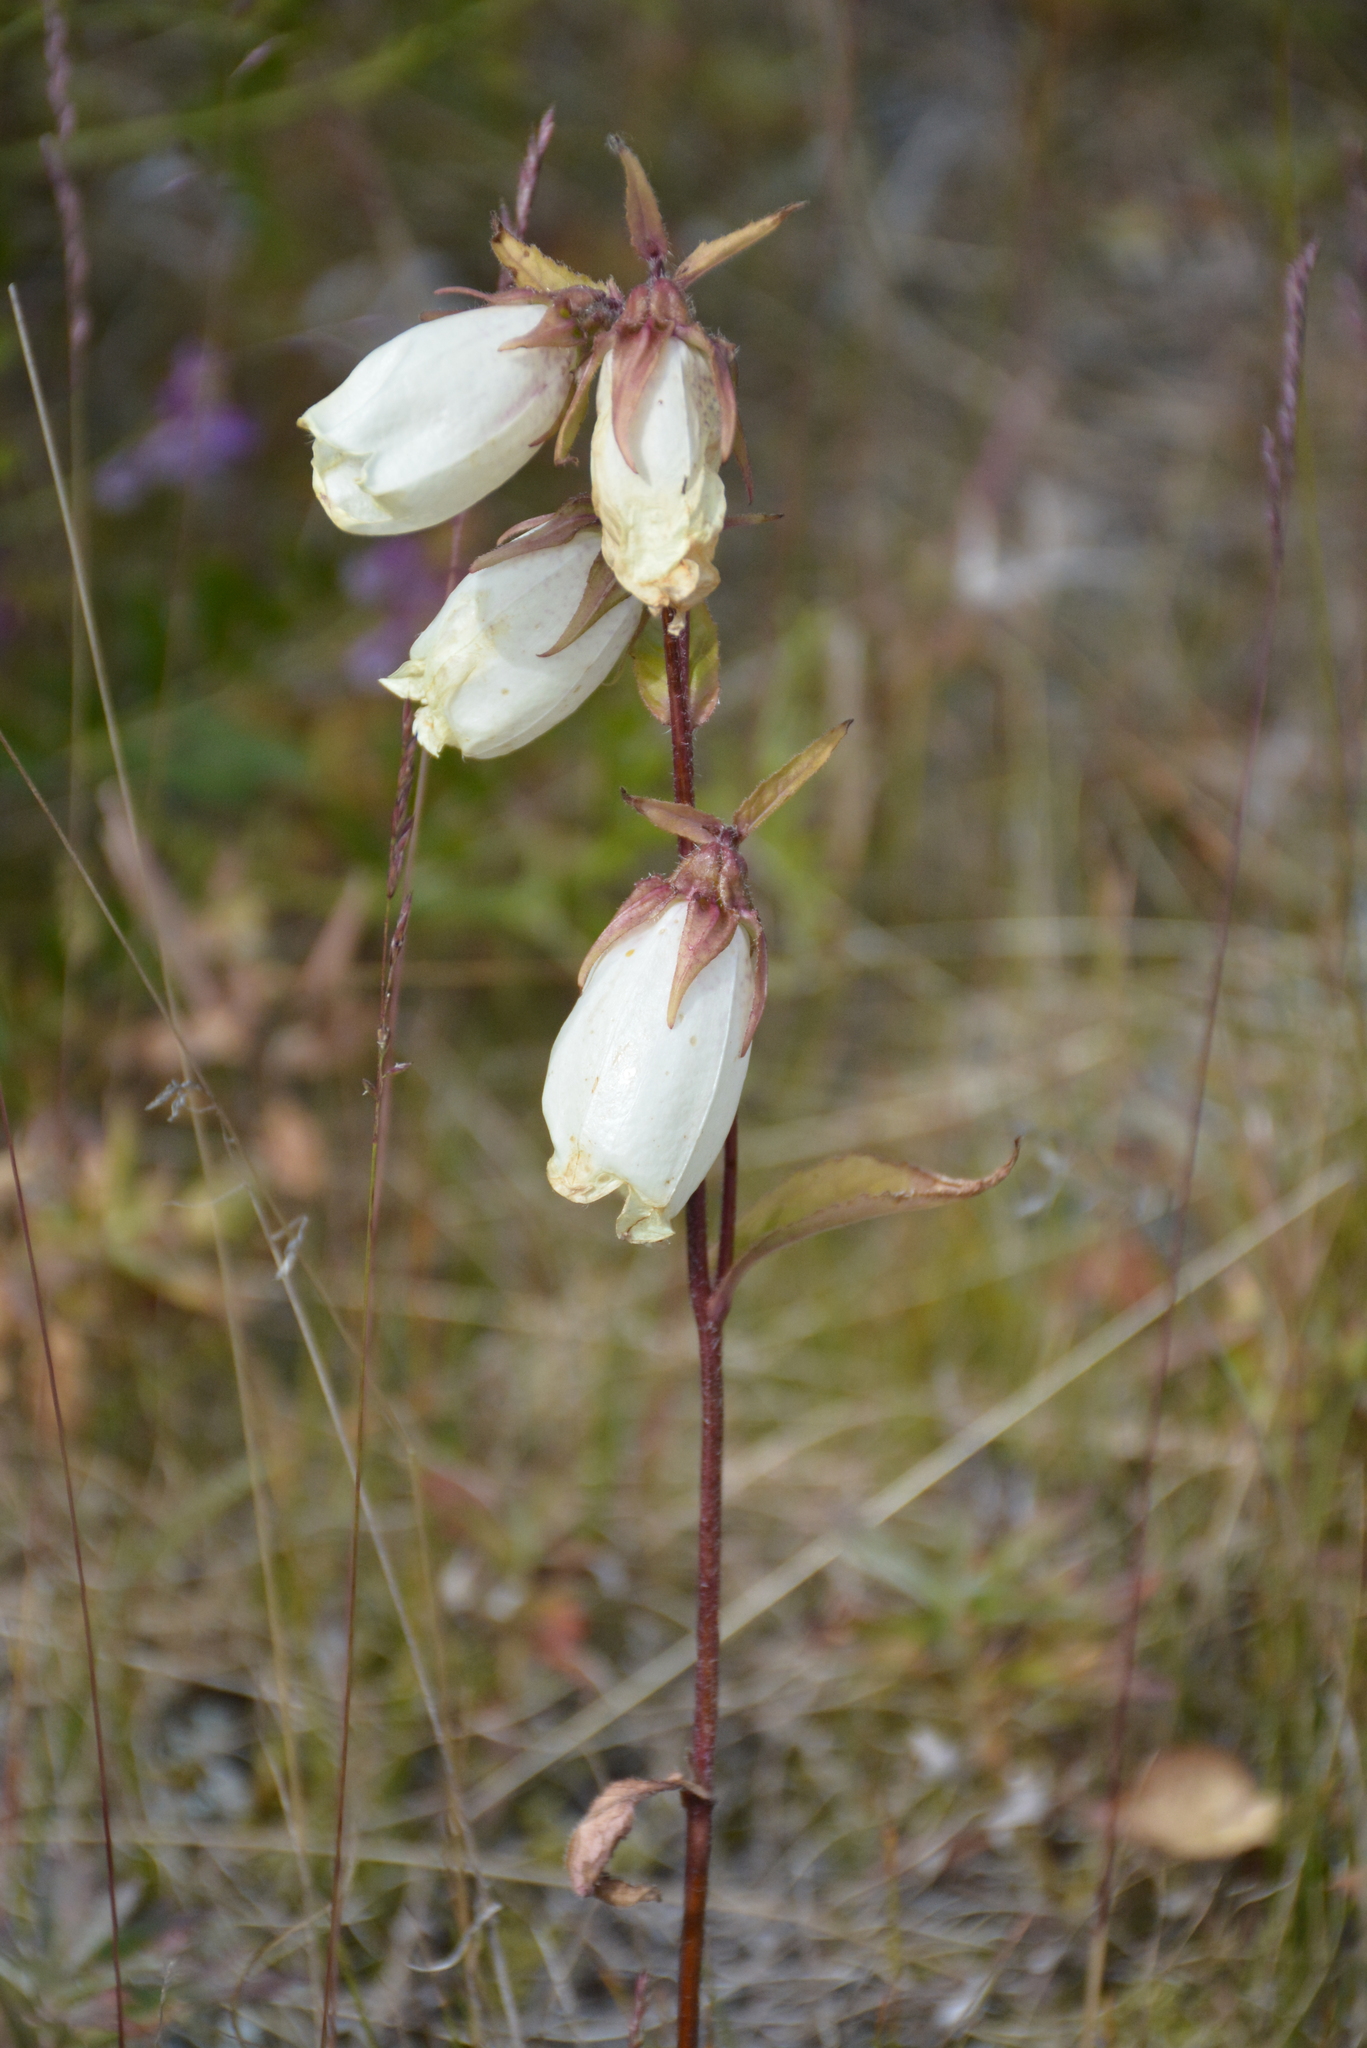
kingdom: Plantae
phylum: Tracheophyta
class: Magnoliopsida
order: Asterales
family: Campanulaceae
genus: Campanula
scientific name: Campanula punctata
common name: Spotted bellflower
